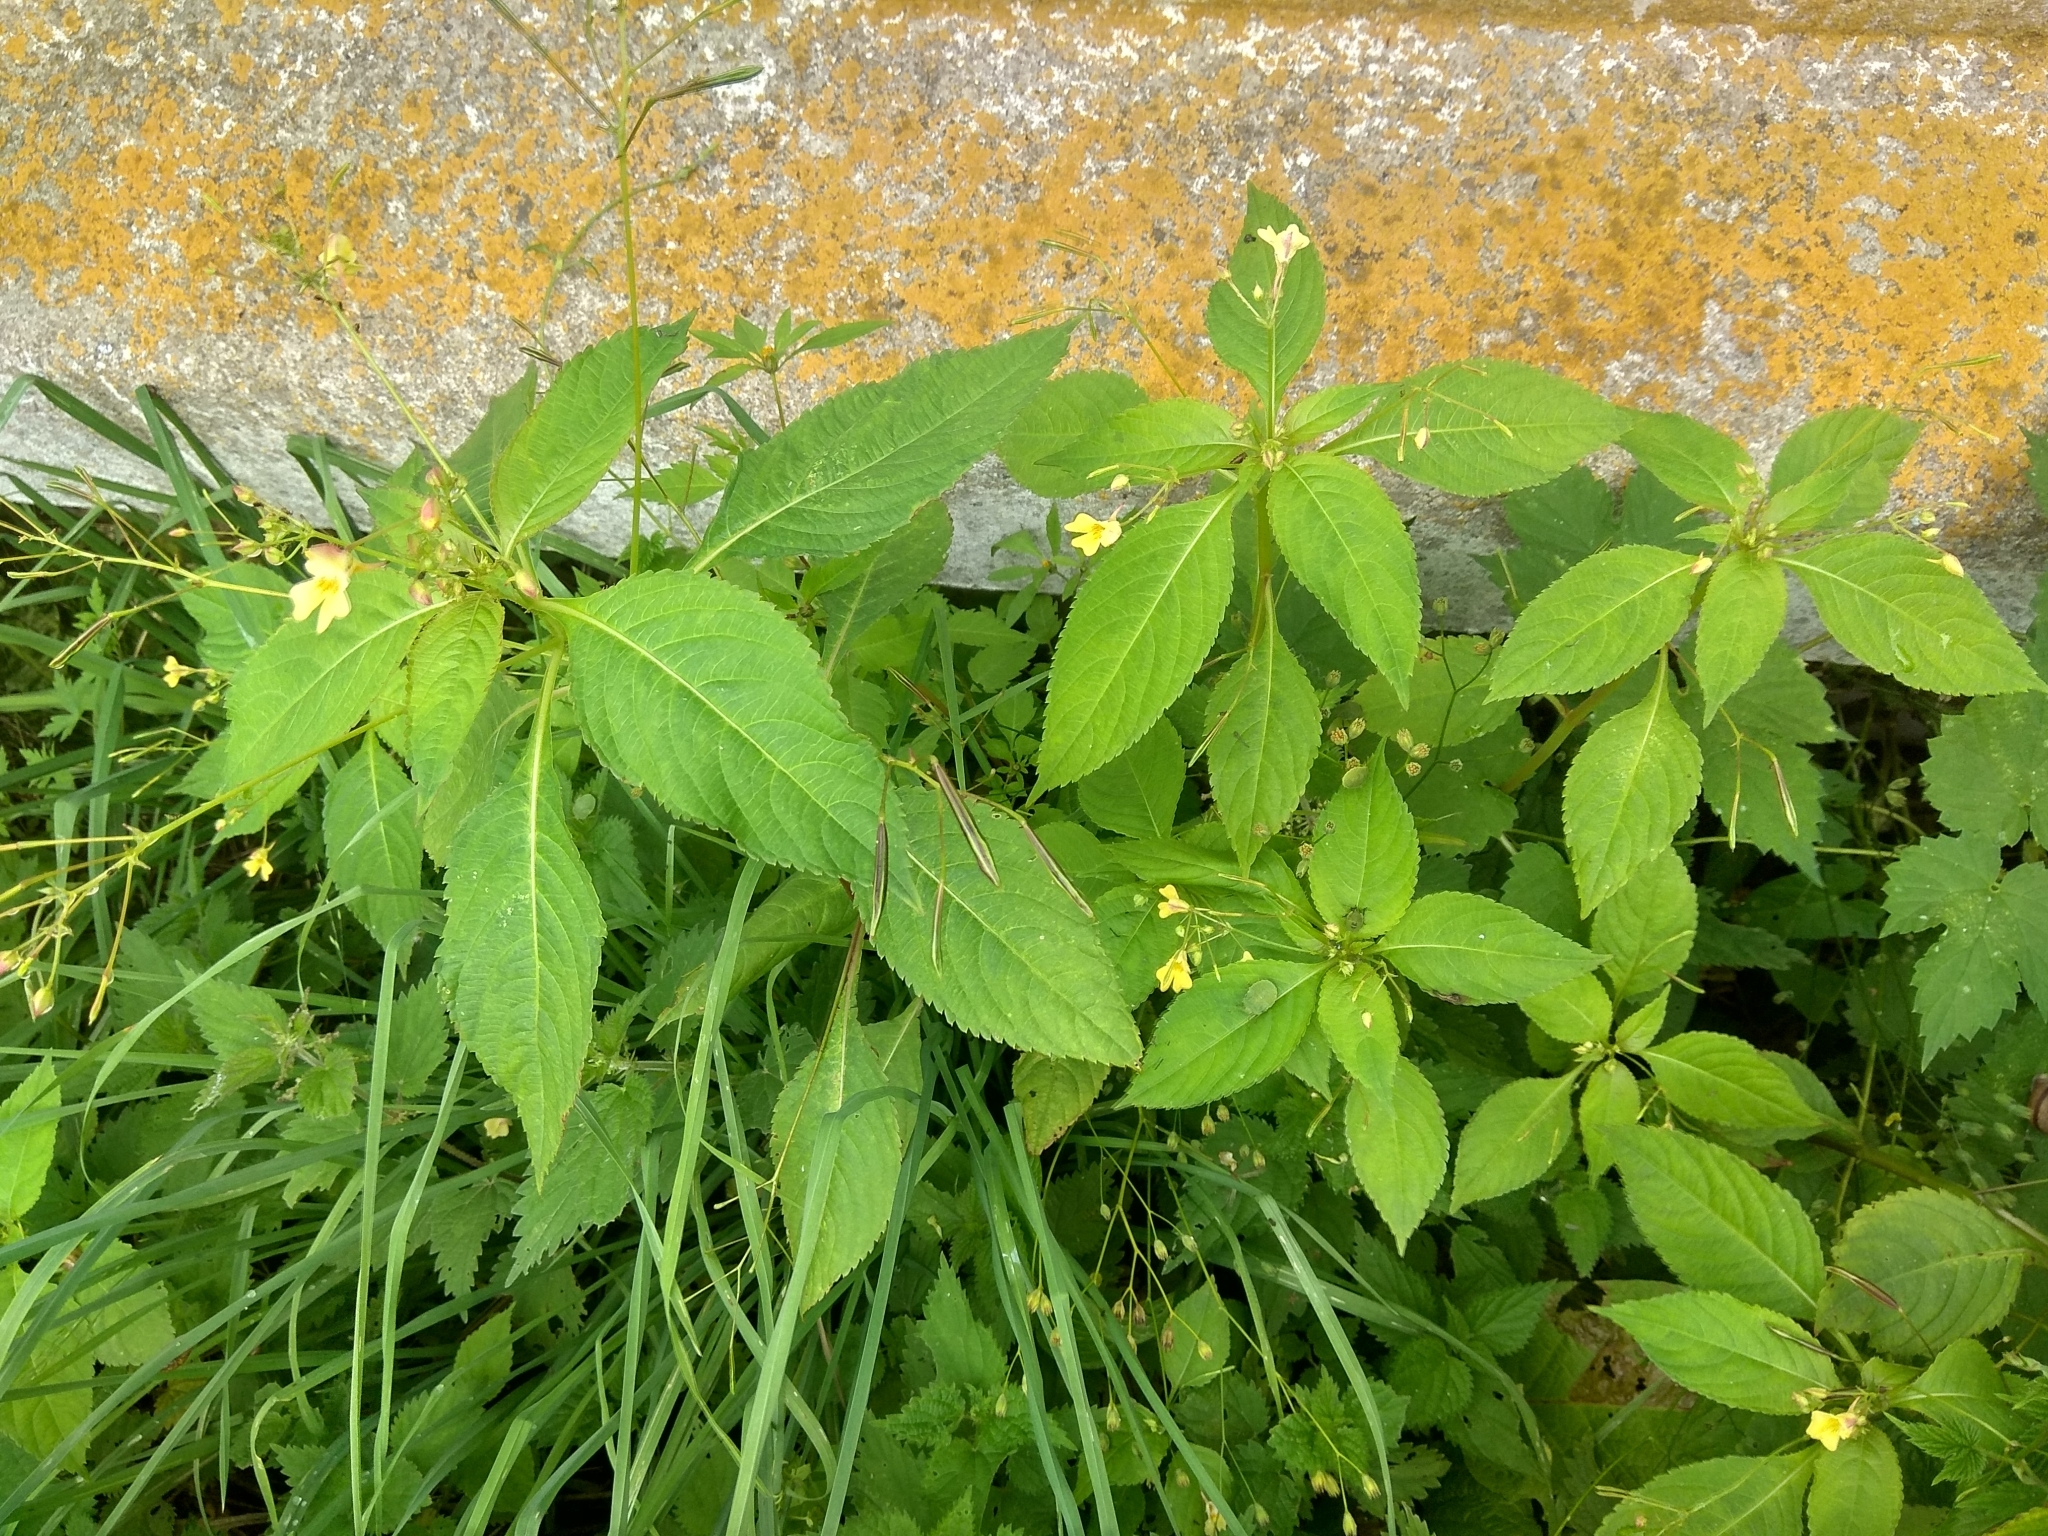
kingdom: Plantae
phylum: Tracheophyta
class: Magnoliopsida
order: Ericales
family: Balsaminaceae
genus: Impatiens
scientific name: Impatiens parviflora
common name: Small balsam
